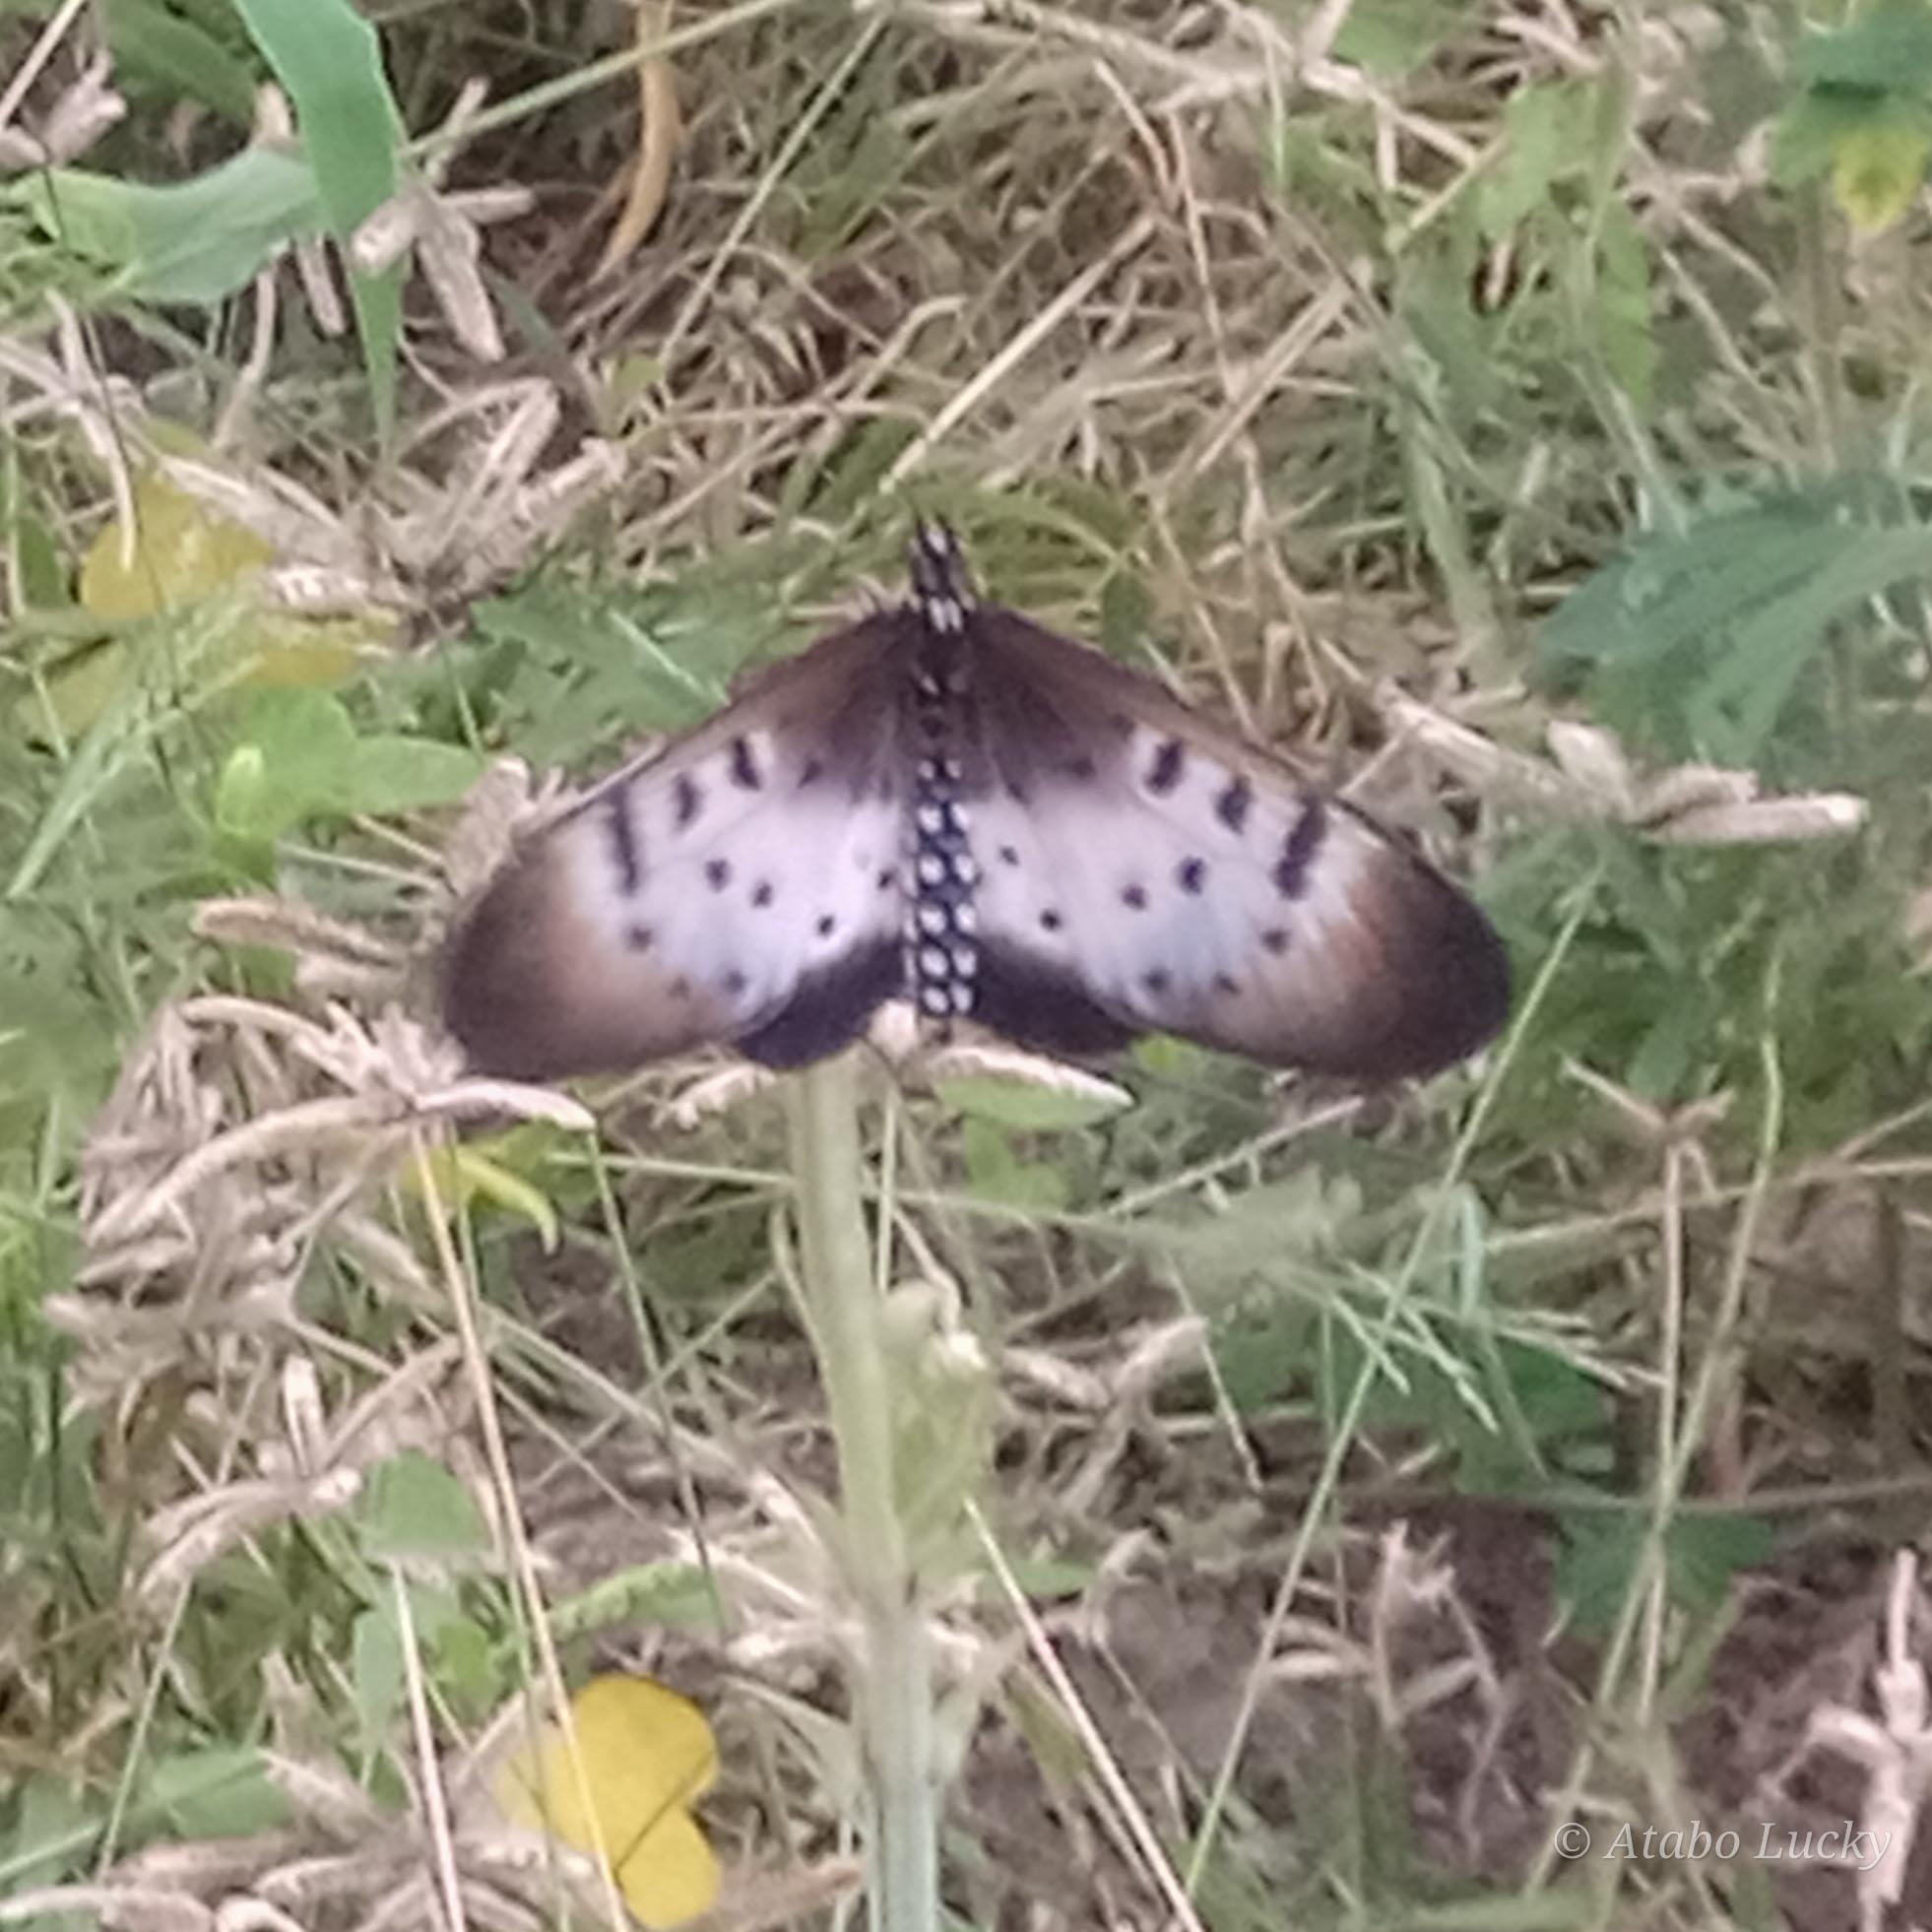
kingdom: Animalia
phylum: Arthropoda
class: Insecta
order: Lepidoptera
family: Nymphalidae
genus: Stephenia
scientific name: Stephenia
